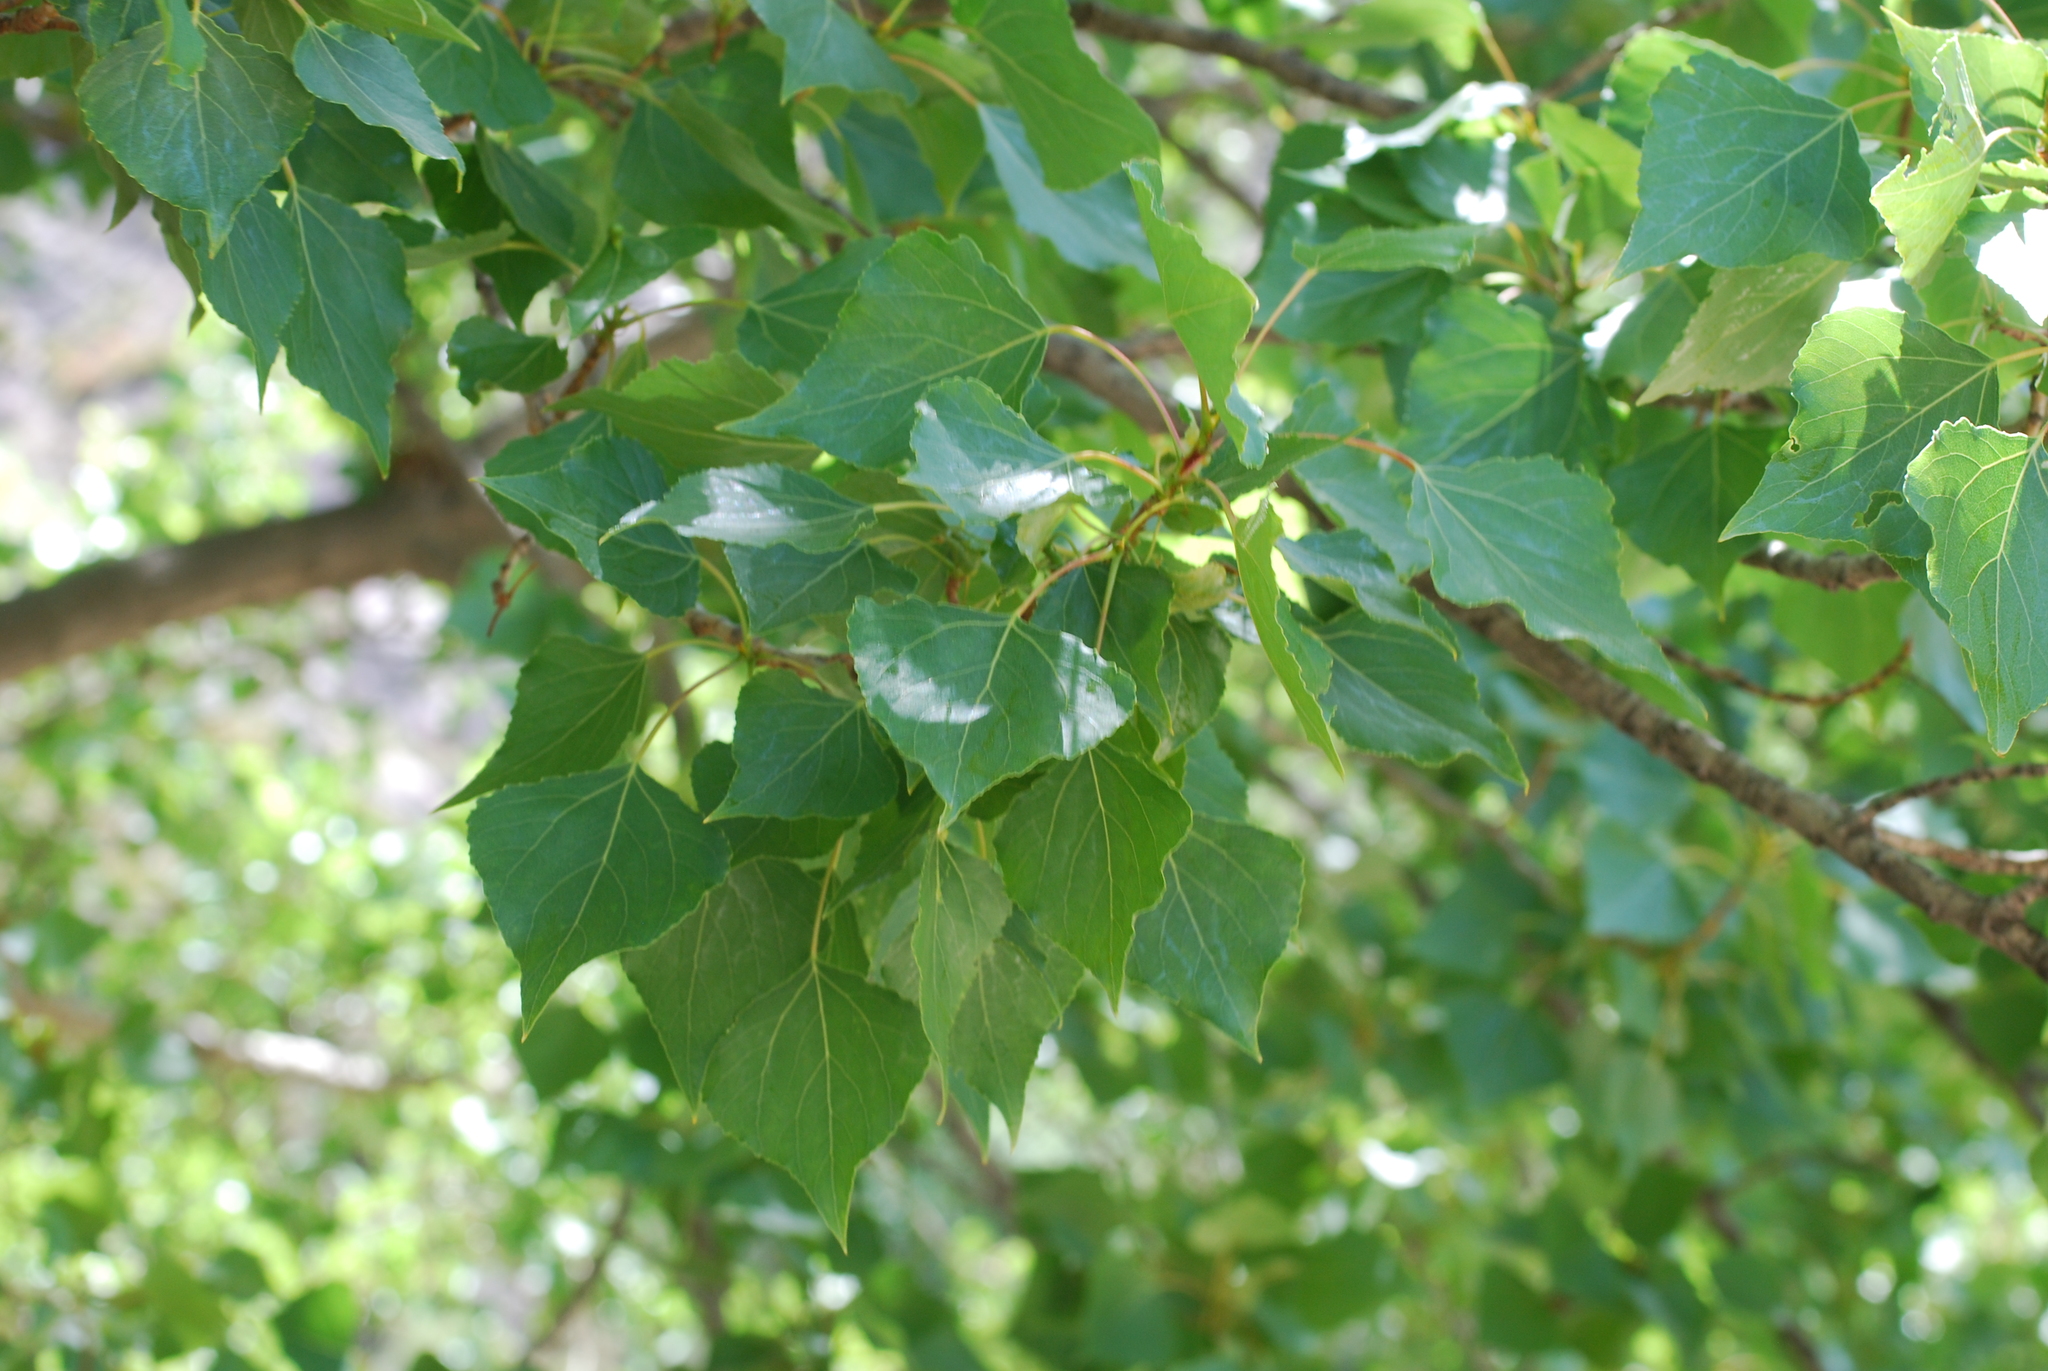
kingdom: Plantae
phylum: Tracheophyta
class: Magnoliopsida
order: Malpighiales
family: Salicaceae
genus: Populus
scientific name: Populus nigra
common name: Black poplar
